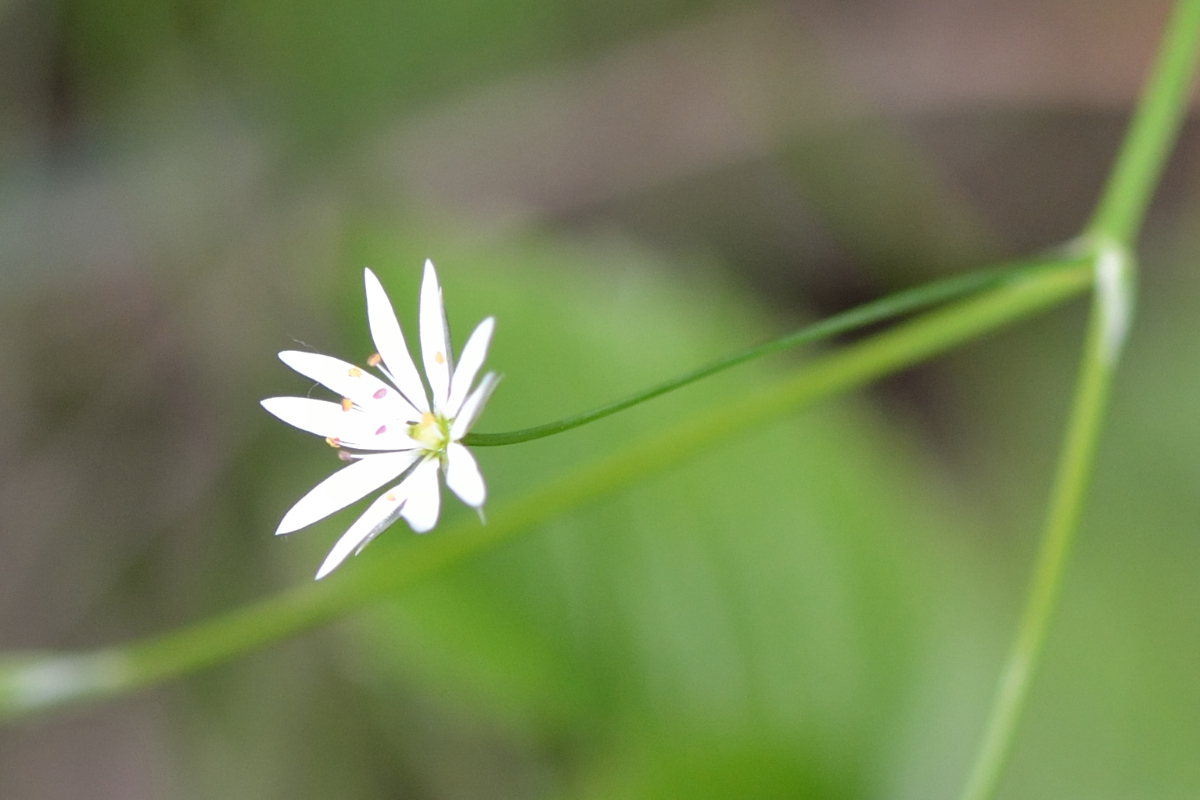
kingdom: Plantae
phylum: Tracheophyta
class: Magnoliopsida
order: Caryophyllales
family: Caryophyllaceae
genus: Stellaria
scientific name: Stellaria graminea
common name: Grass-like starwort
